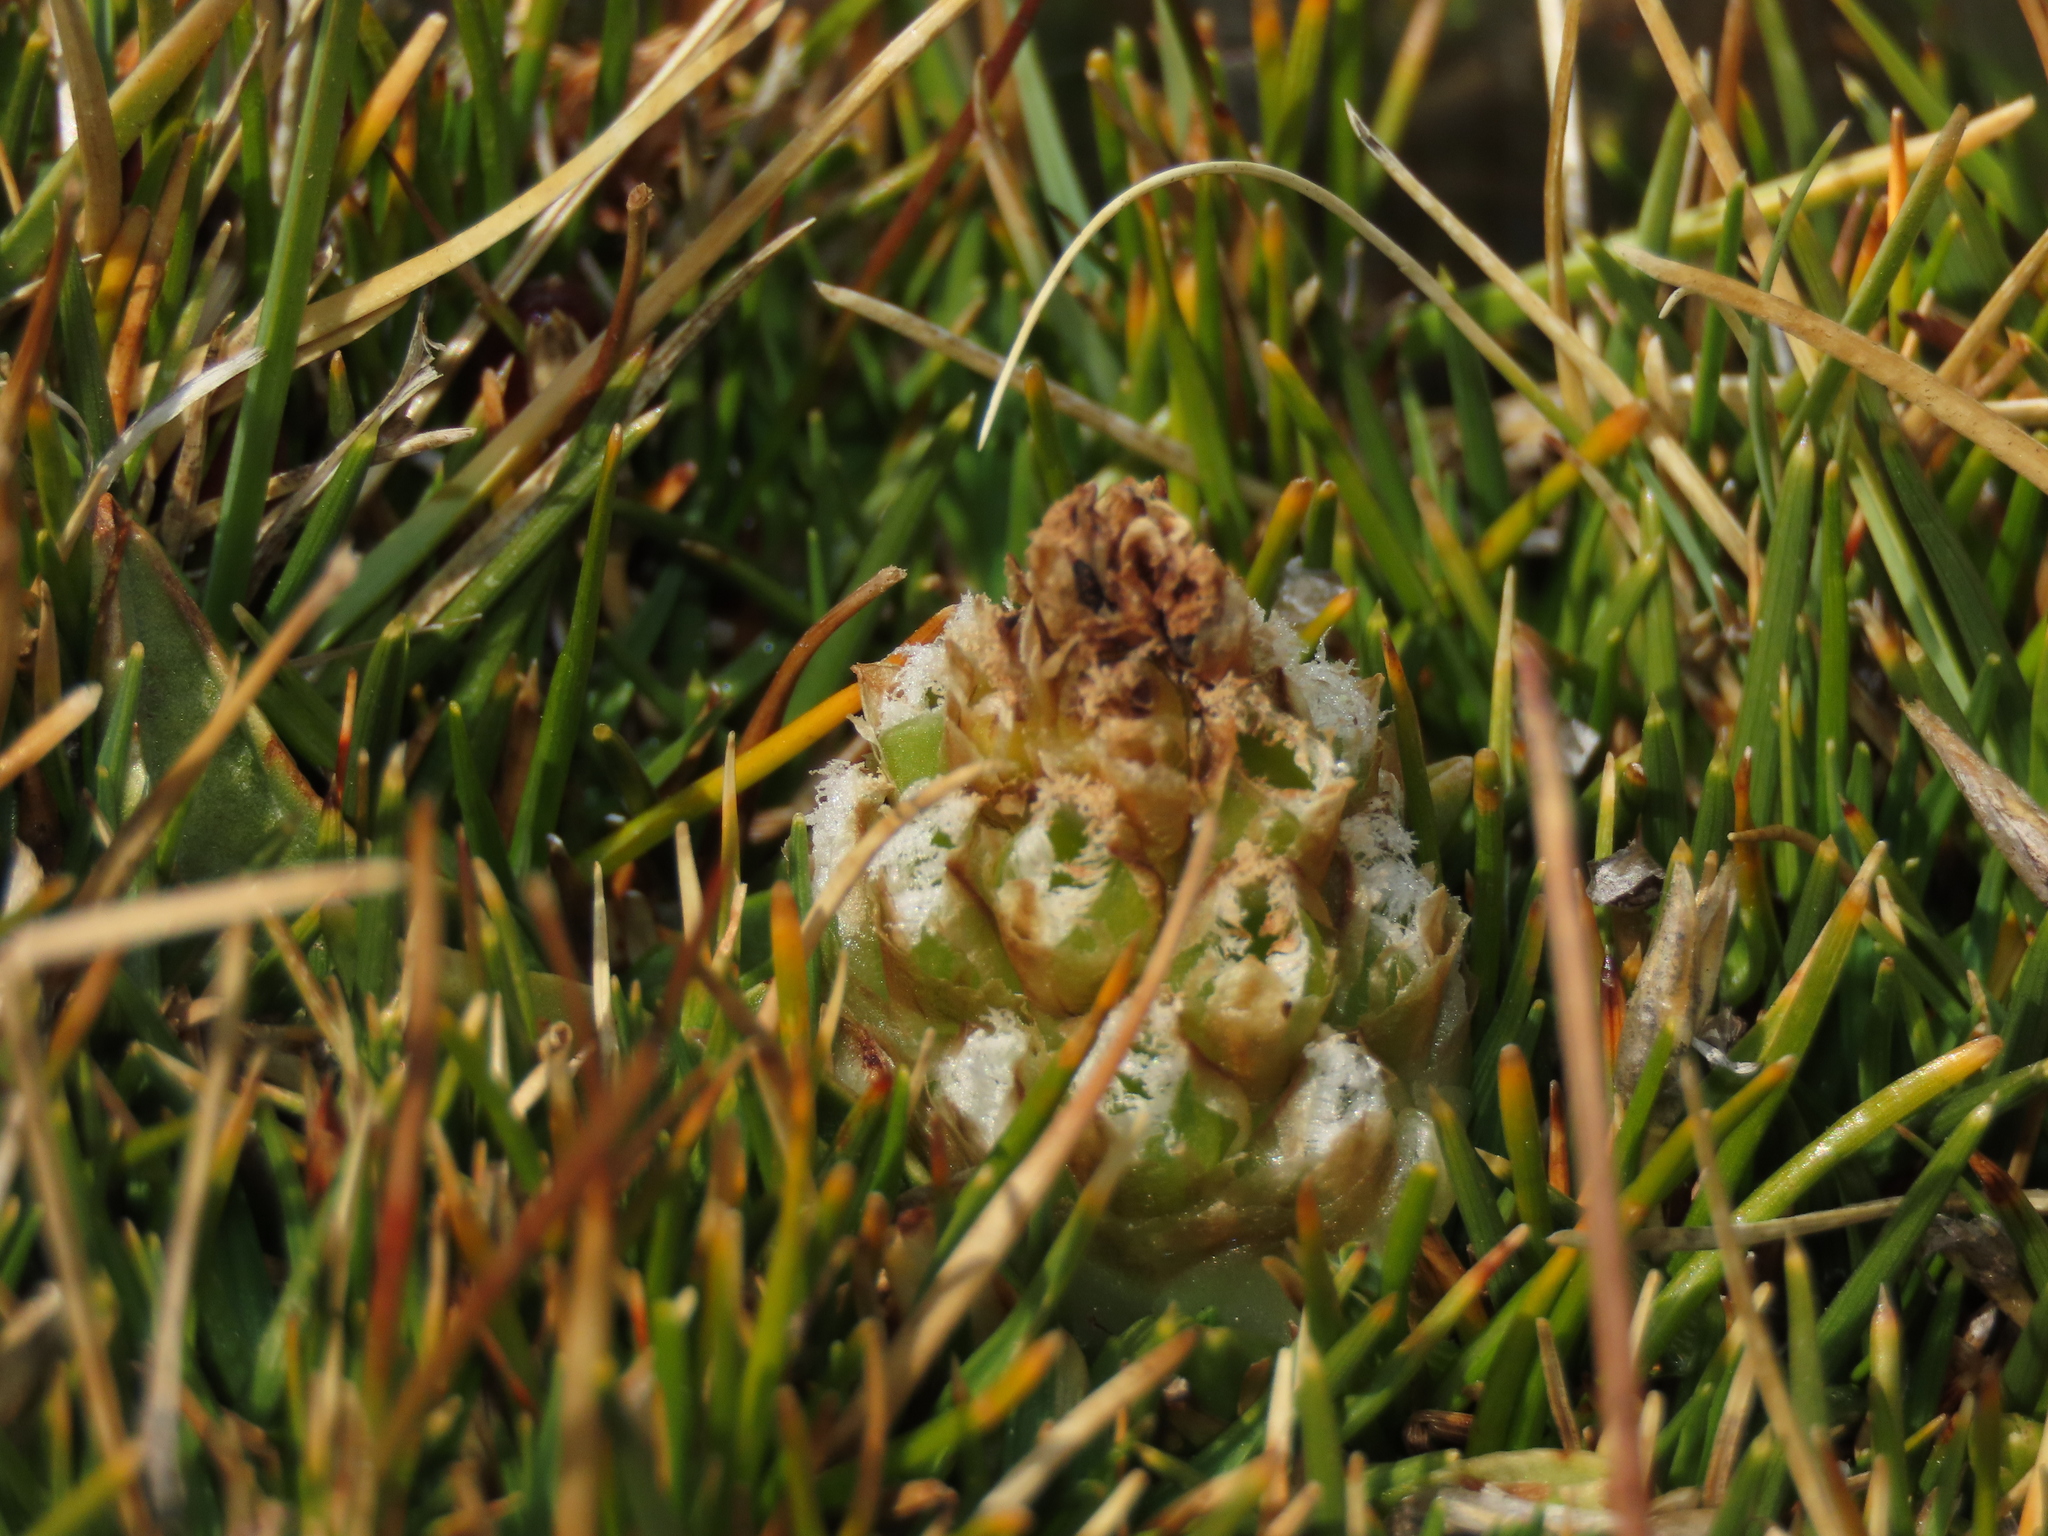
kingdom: Plantae
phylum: Tracheophyta
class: Liliopsida
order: Asparagales
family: Orchidaceae
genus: Myrosmodes
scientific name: Myrosmodes nervosa
